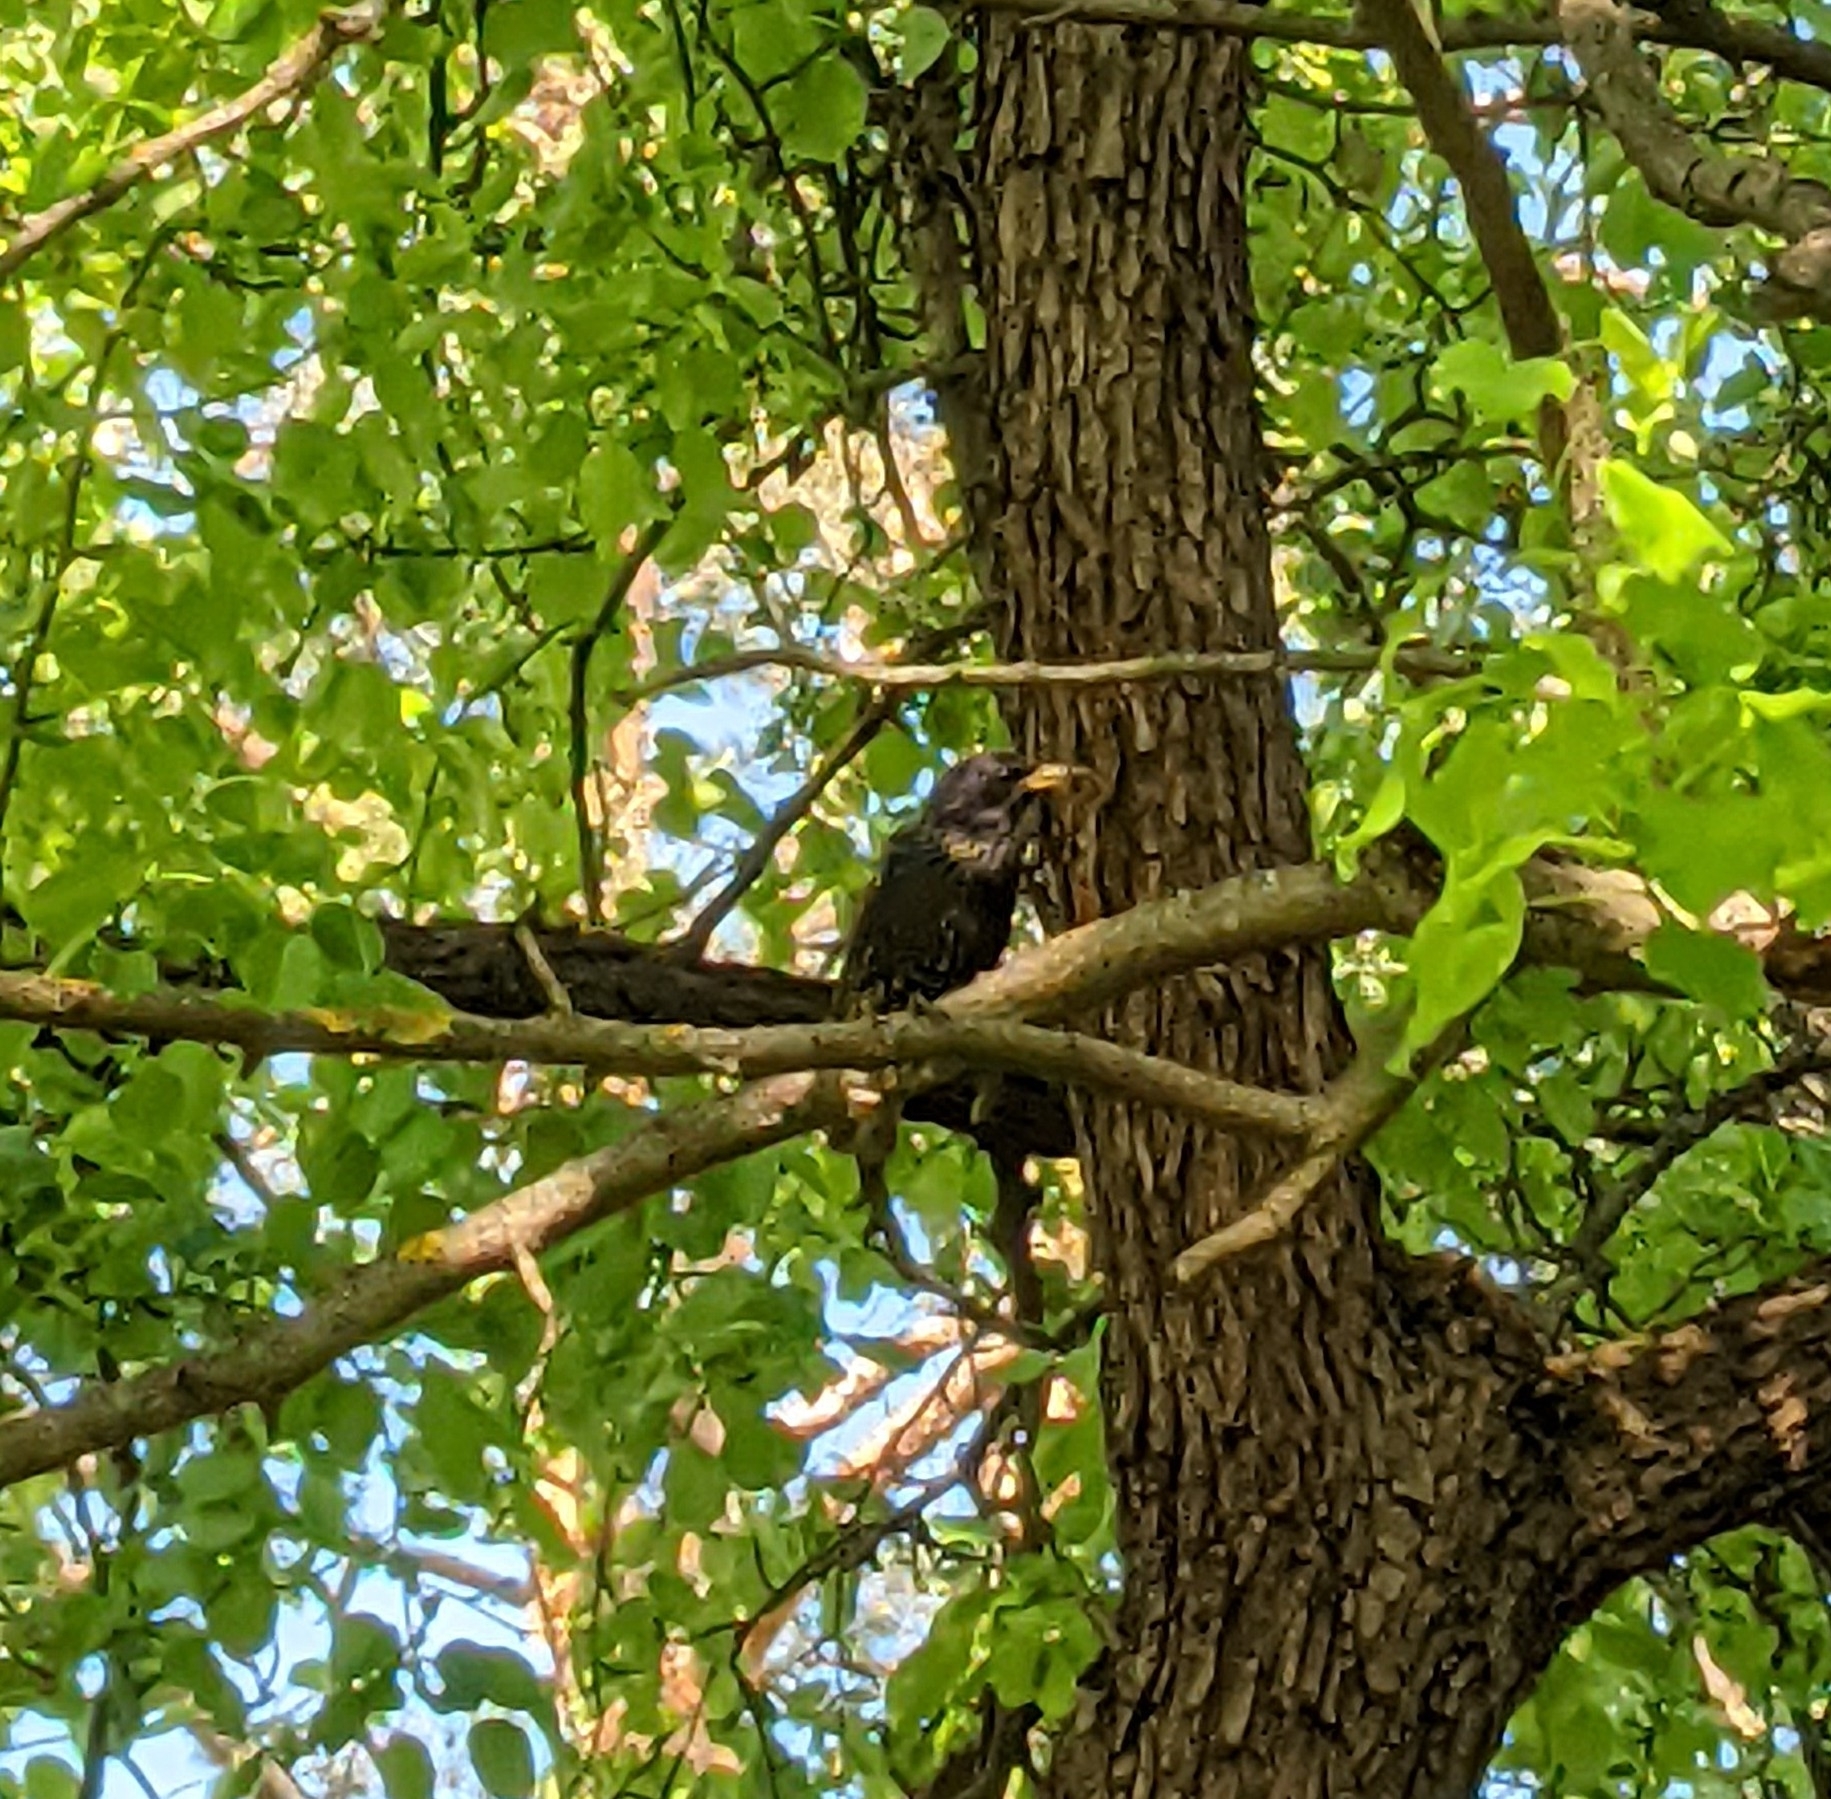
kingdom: Animalia
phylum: Chordata
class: Aves
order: Passeriformes
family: Sturnidae
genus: Sturnus
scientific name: Sturnus vulgaris
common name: Common starling
